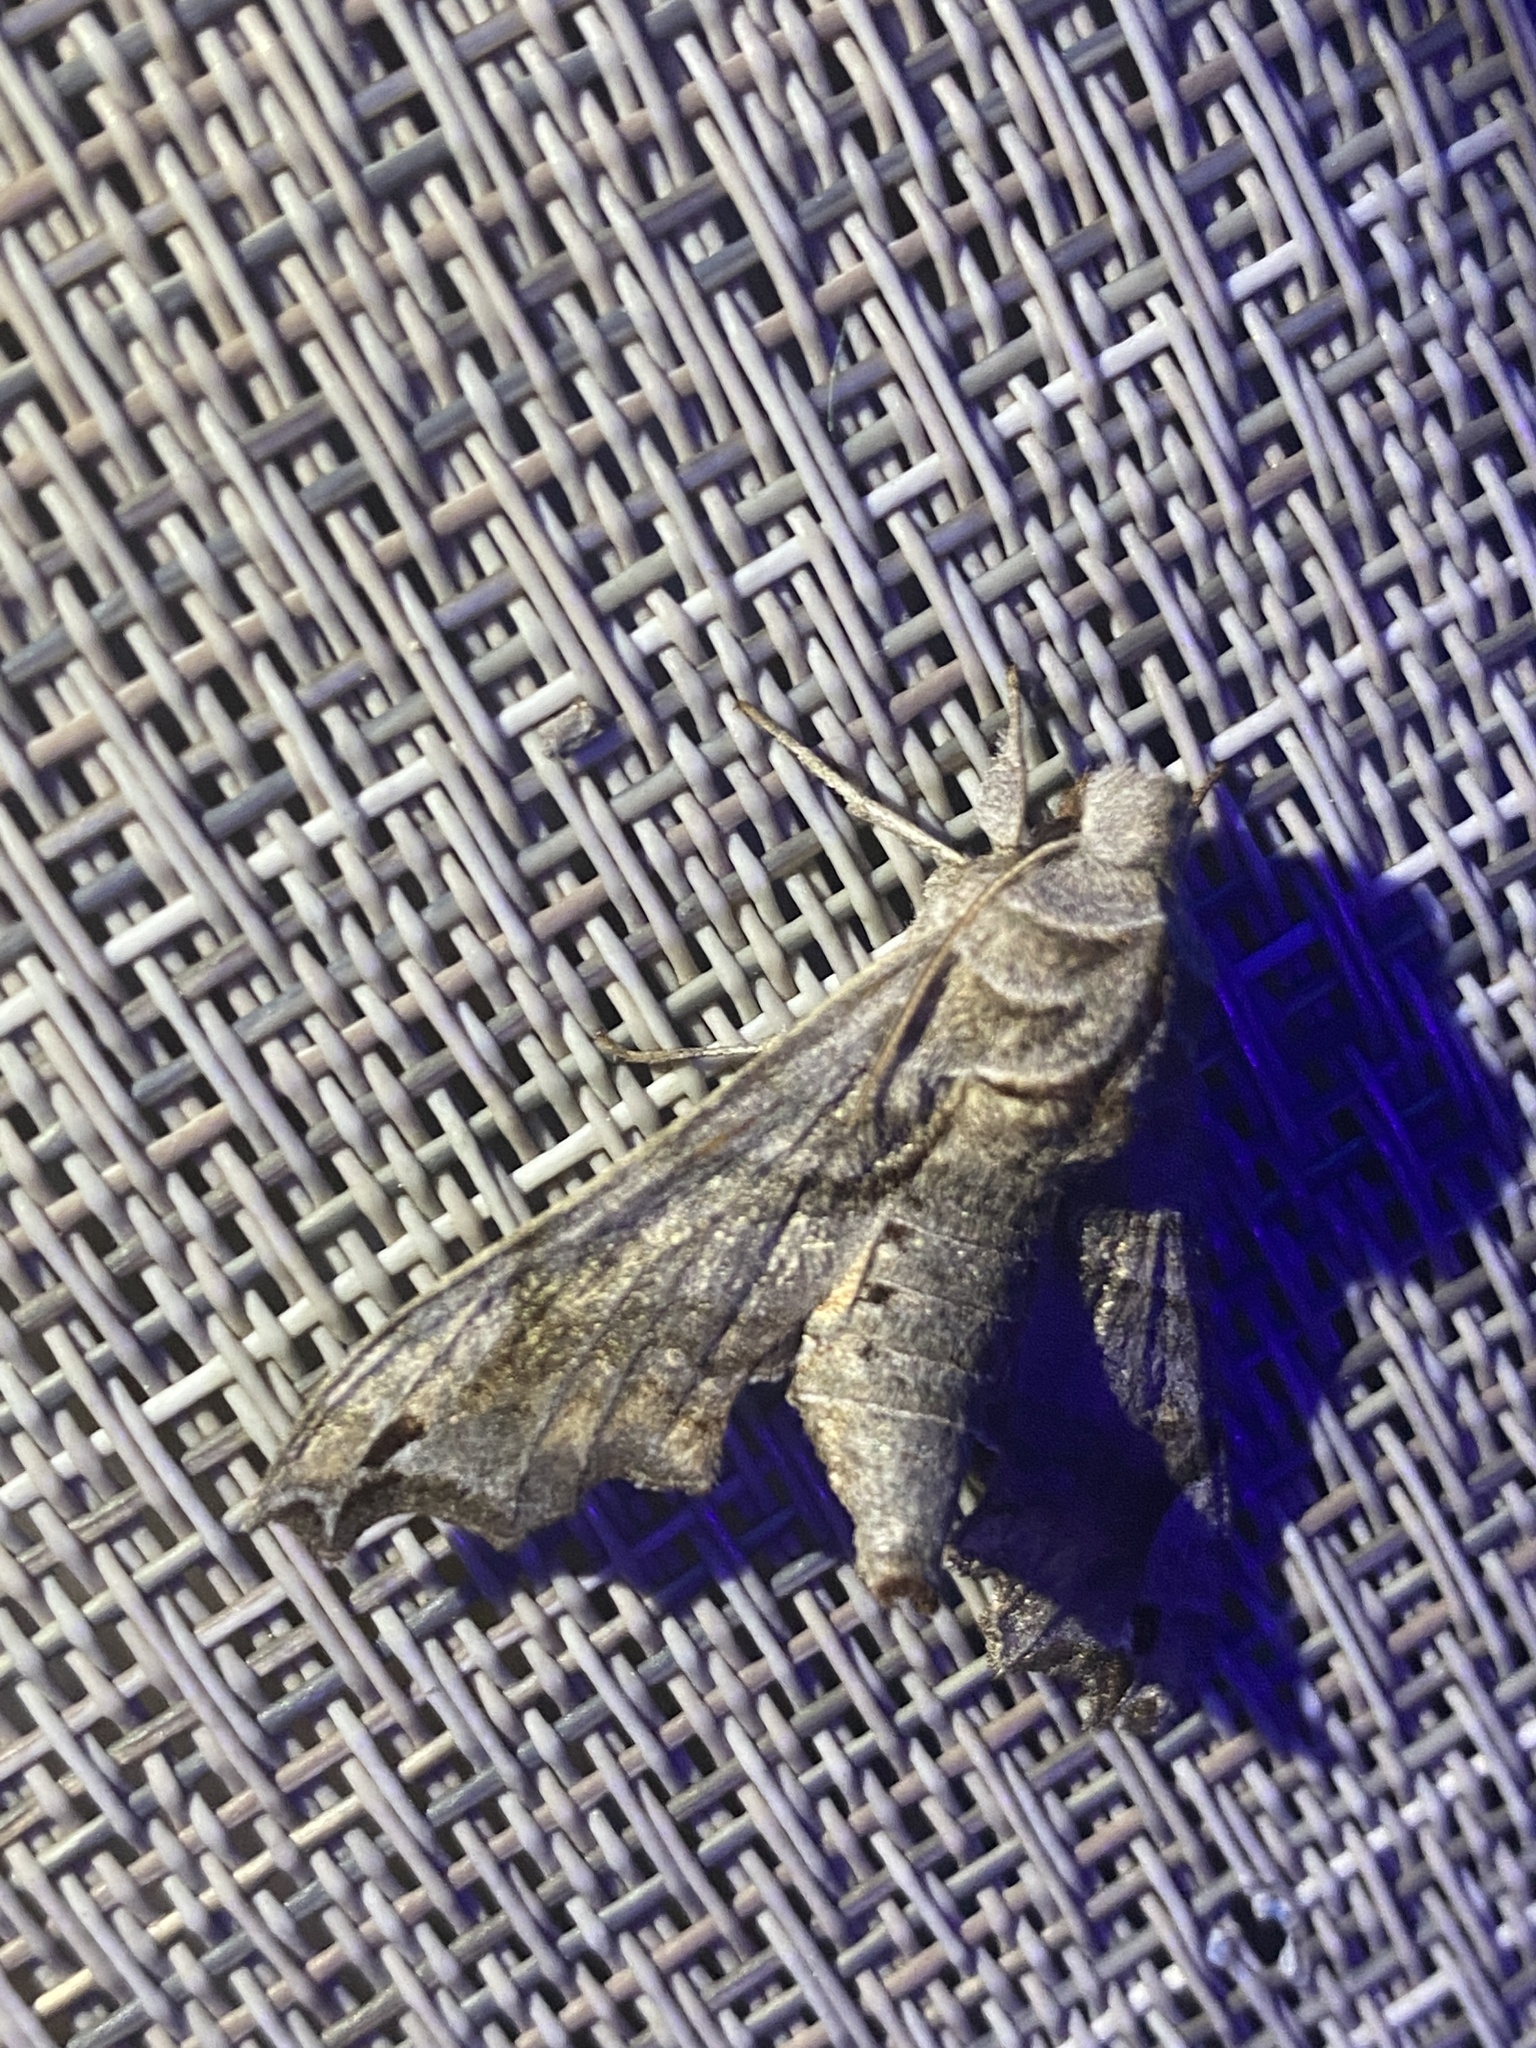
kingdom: Animalia
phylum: Arthropoda
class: Insecta
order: Lepidoptera
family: Sphingidae
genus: Deidamia
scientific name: Deidamia inscriptum
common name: Lettered sphinx
